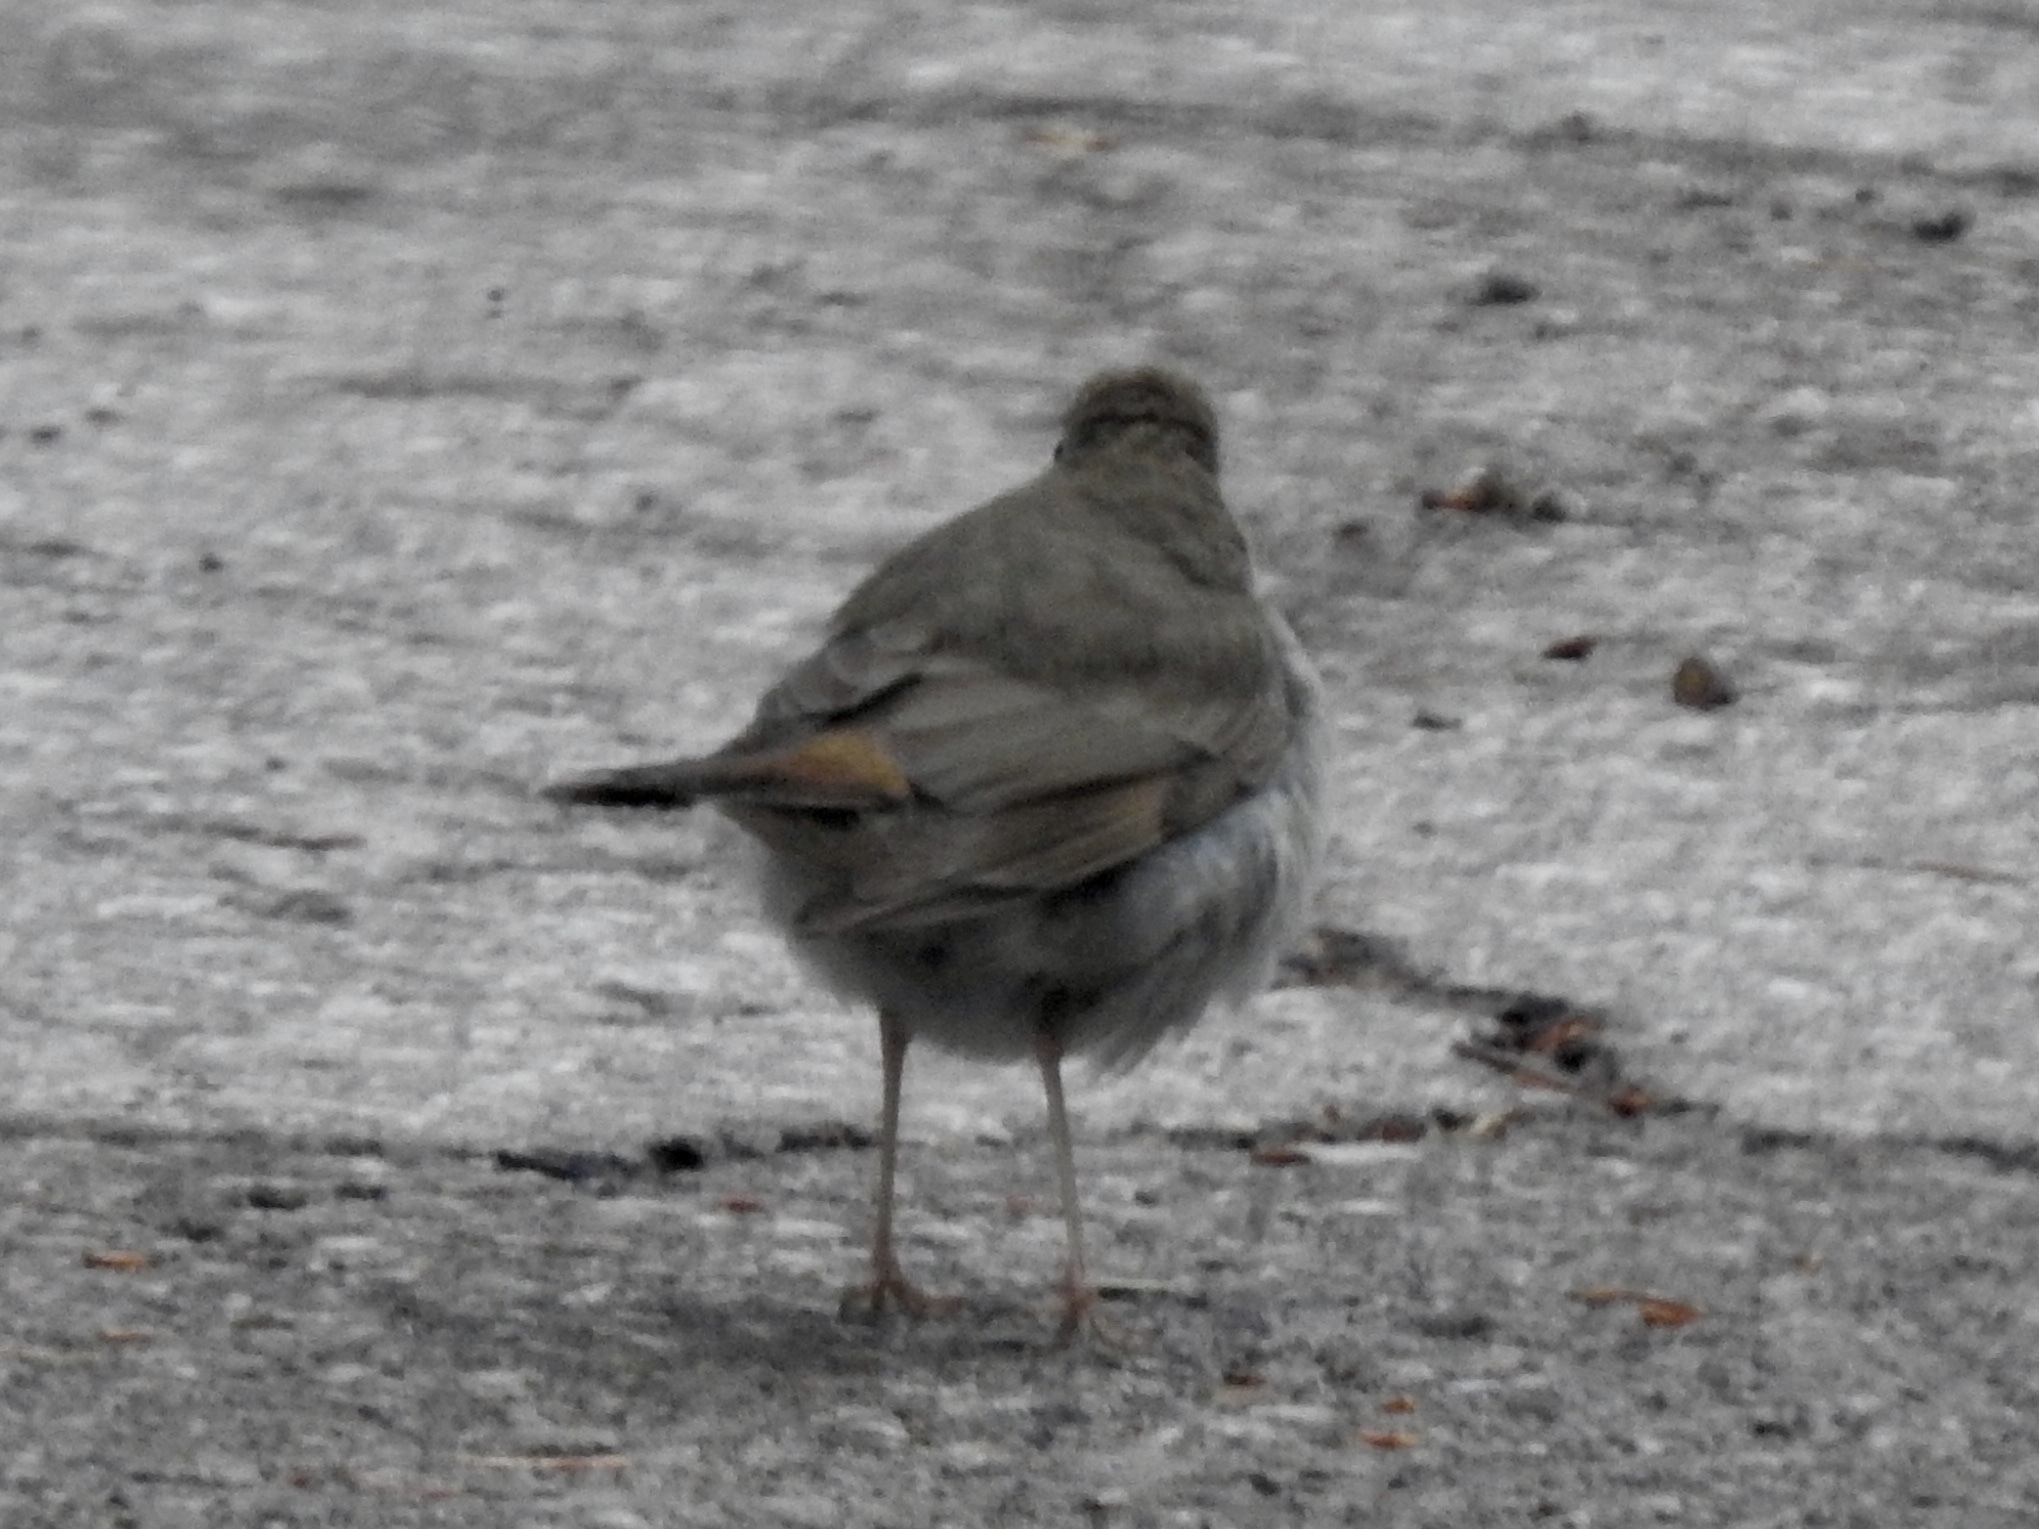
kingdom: Animalia
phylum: Chordata
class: Aves
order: Passeriformes
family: Turdidae
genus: Catharus
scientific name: Catharus guttatus
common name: Hermit thrush
